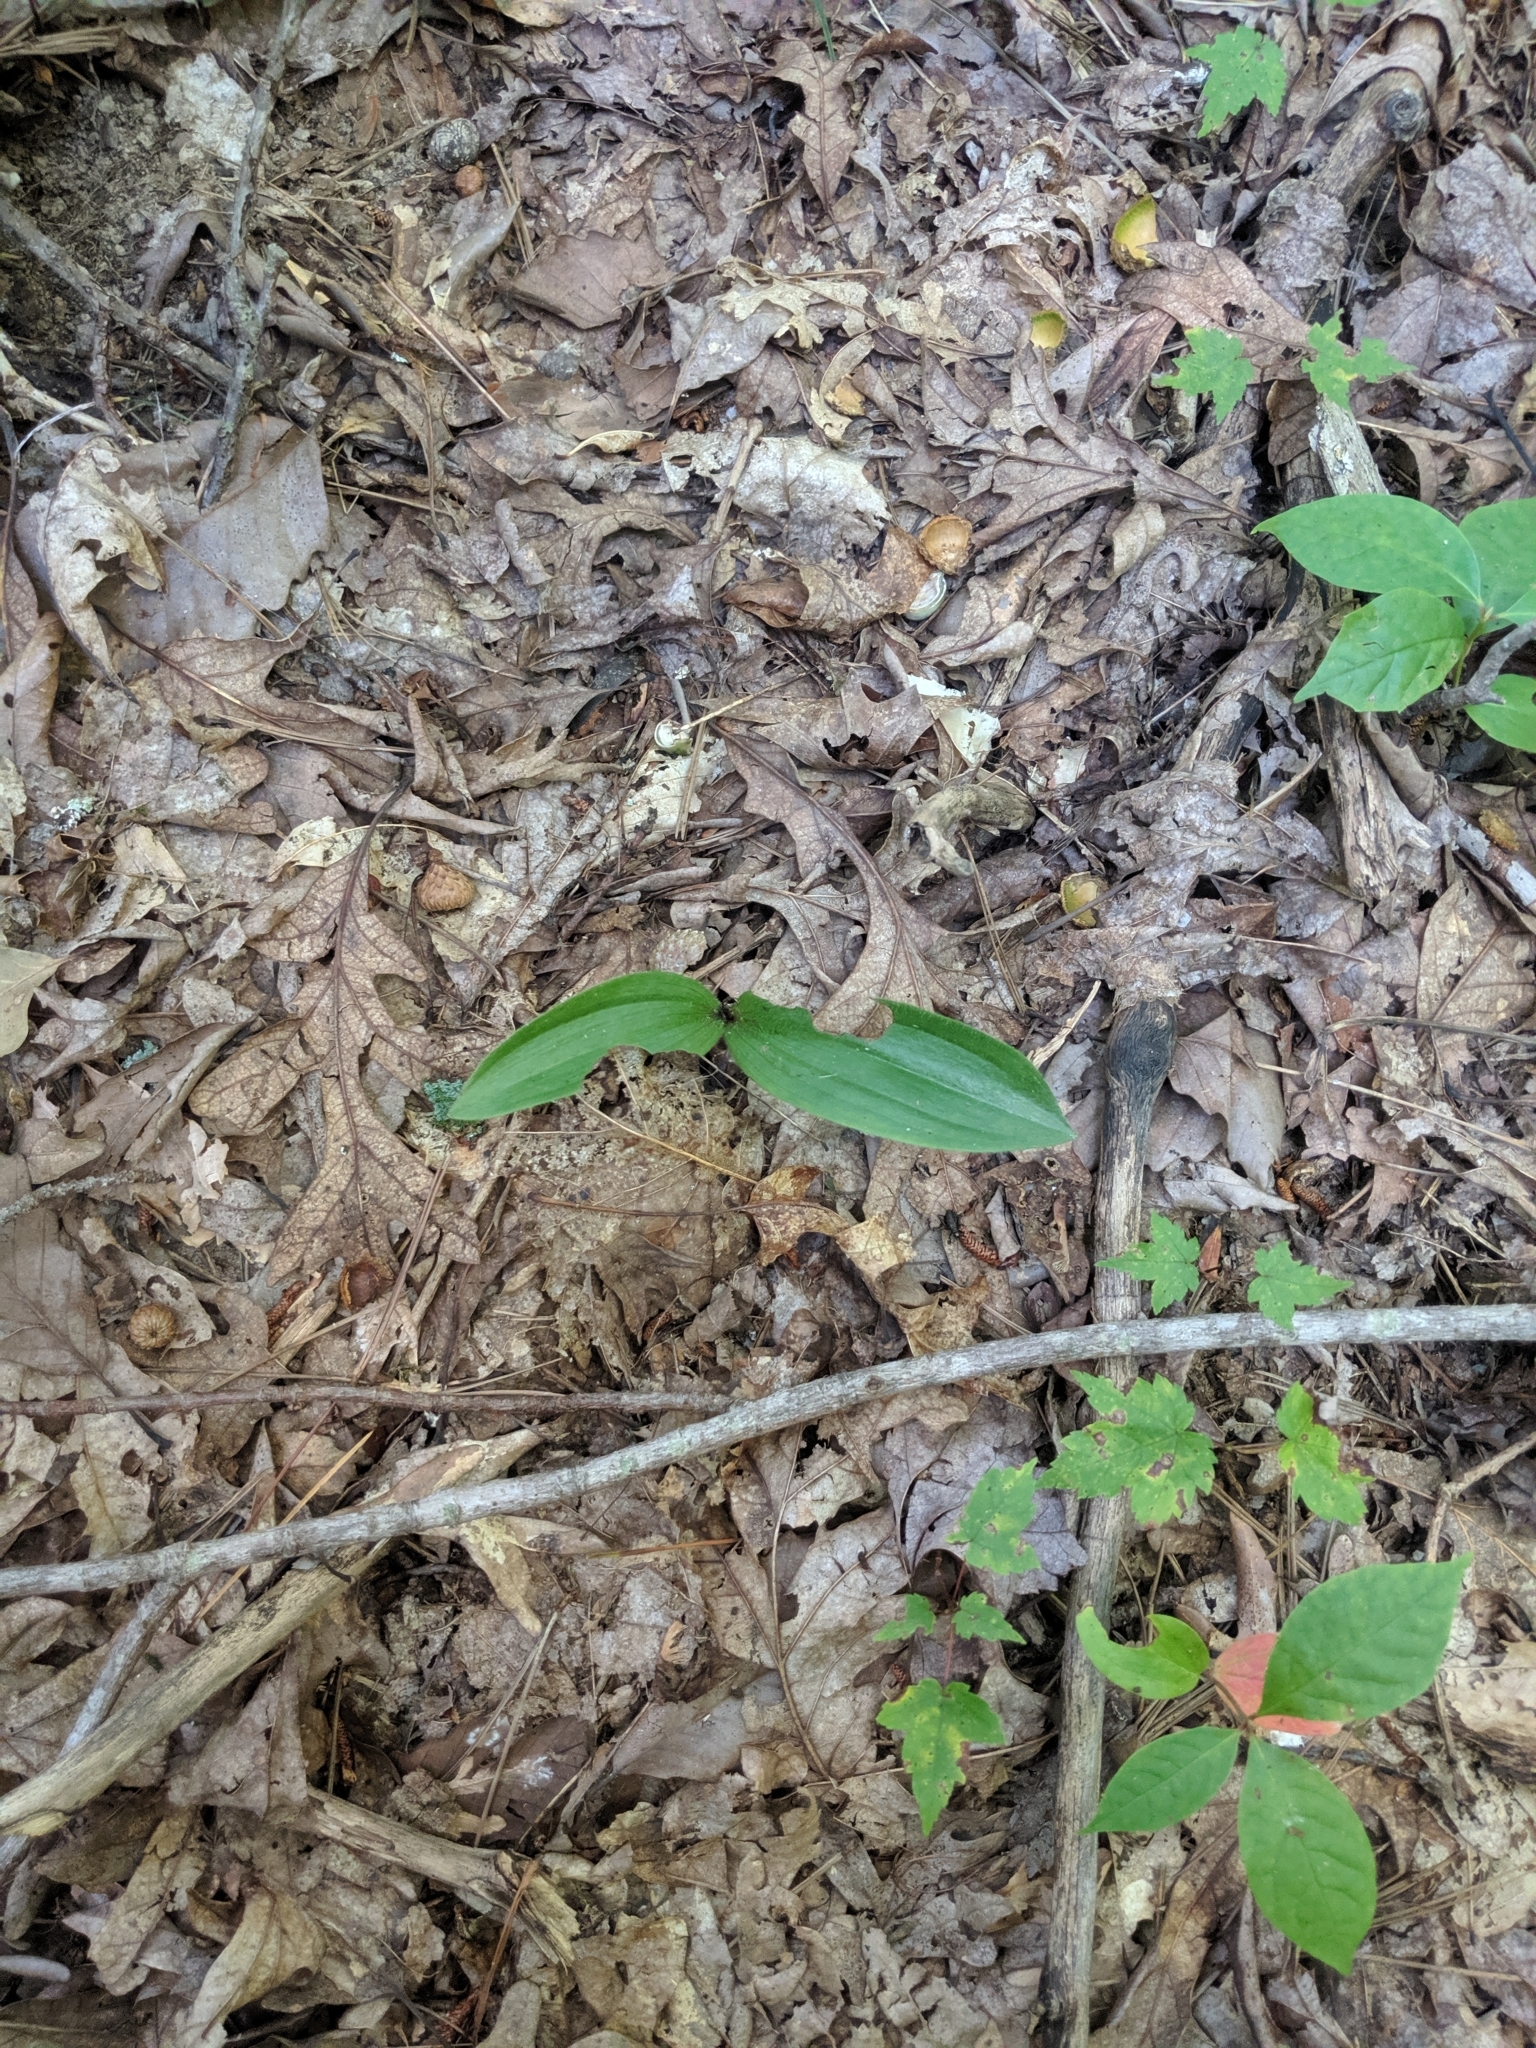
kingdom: Plantae
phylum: Tracheophyta
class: Liliopsida
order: Asparagales
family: Orchidaceae
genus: Cypripedium
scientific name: Cypripedium acaule
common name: Pink lady's-slipper
